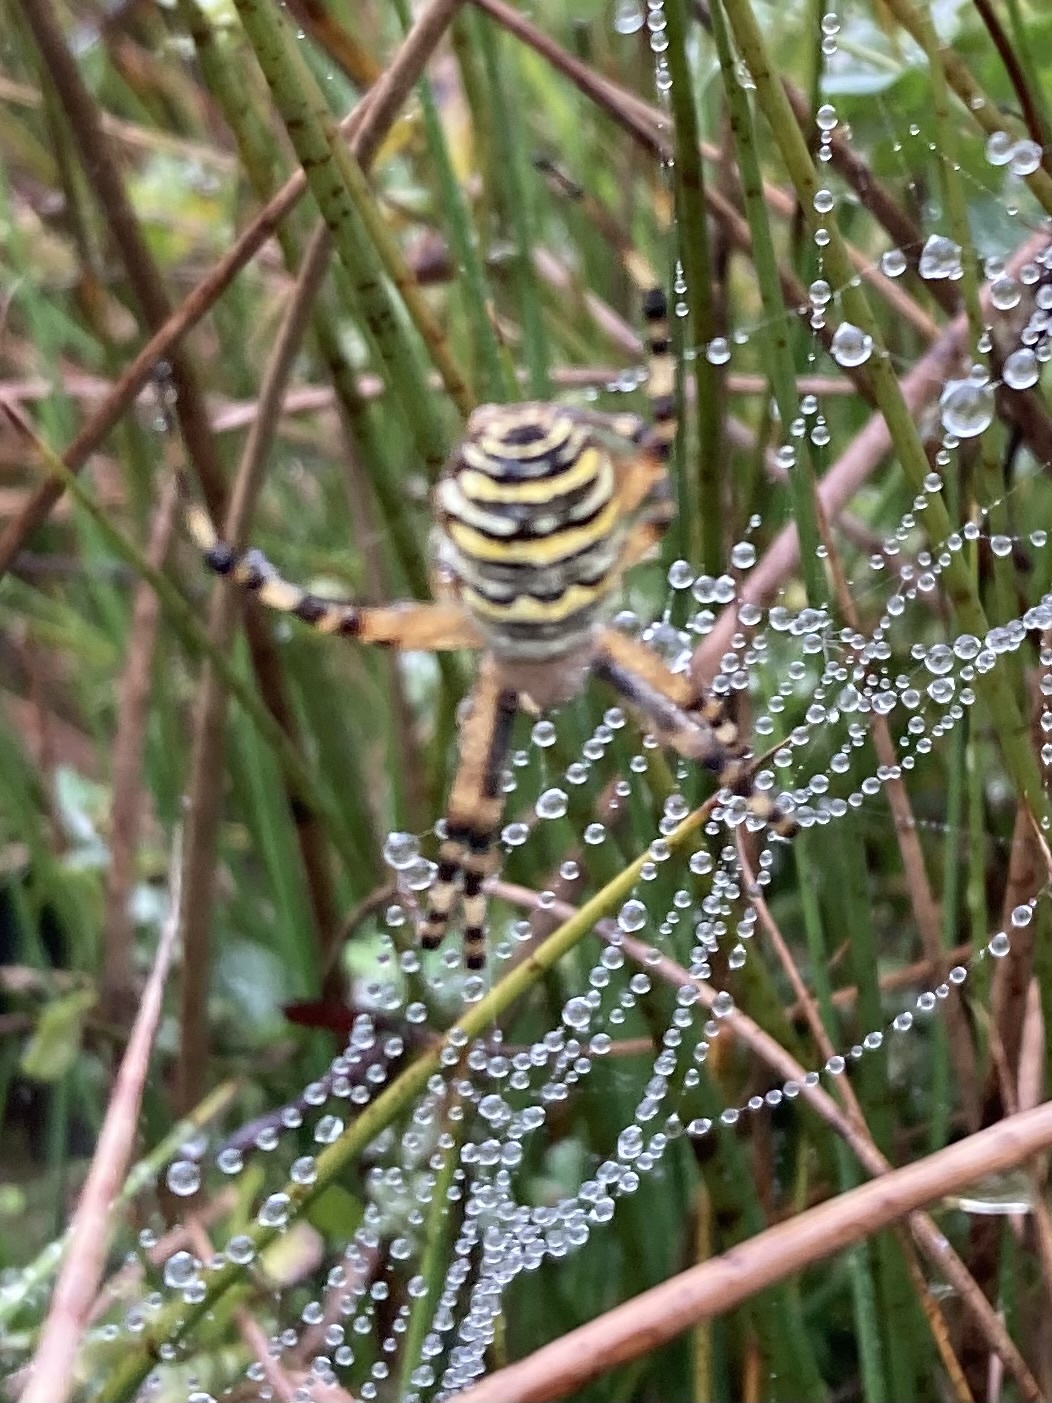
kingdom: Animalia
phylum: Arthropoda
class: Arachnida
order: Araneae
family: Araneidae
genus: Argiope
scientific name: Argiope bruennichi
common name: Wasp spider
